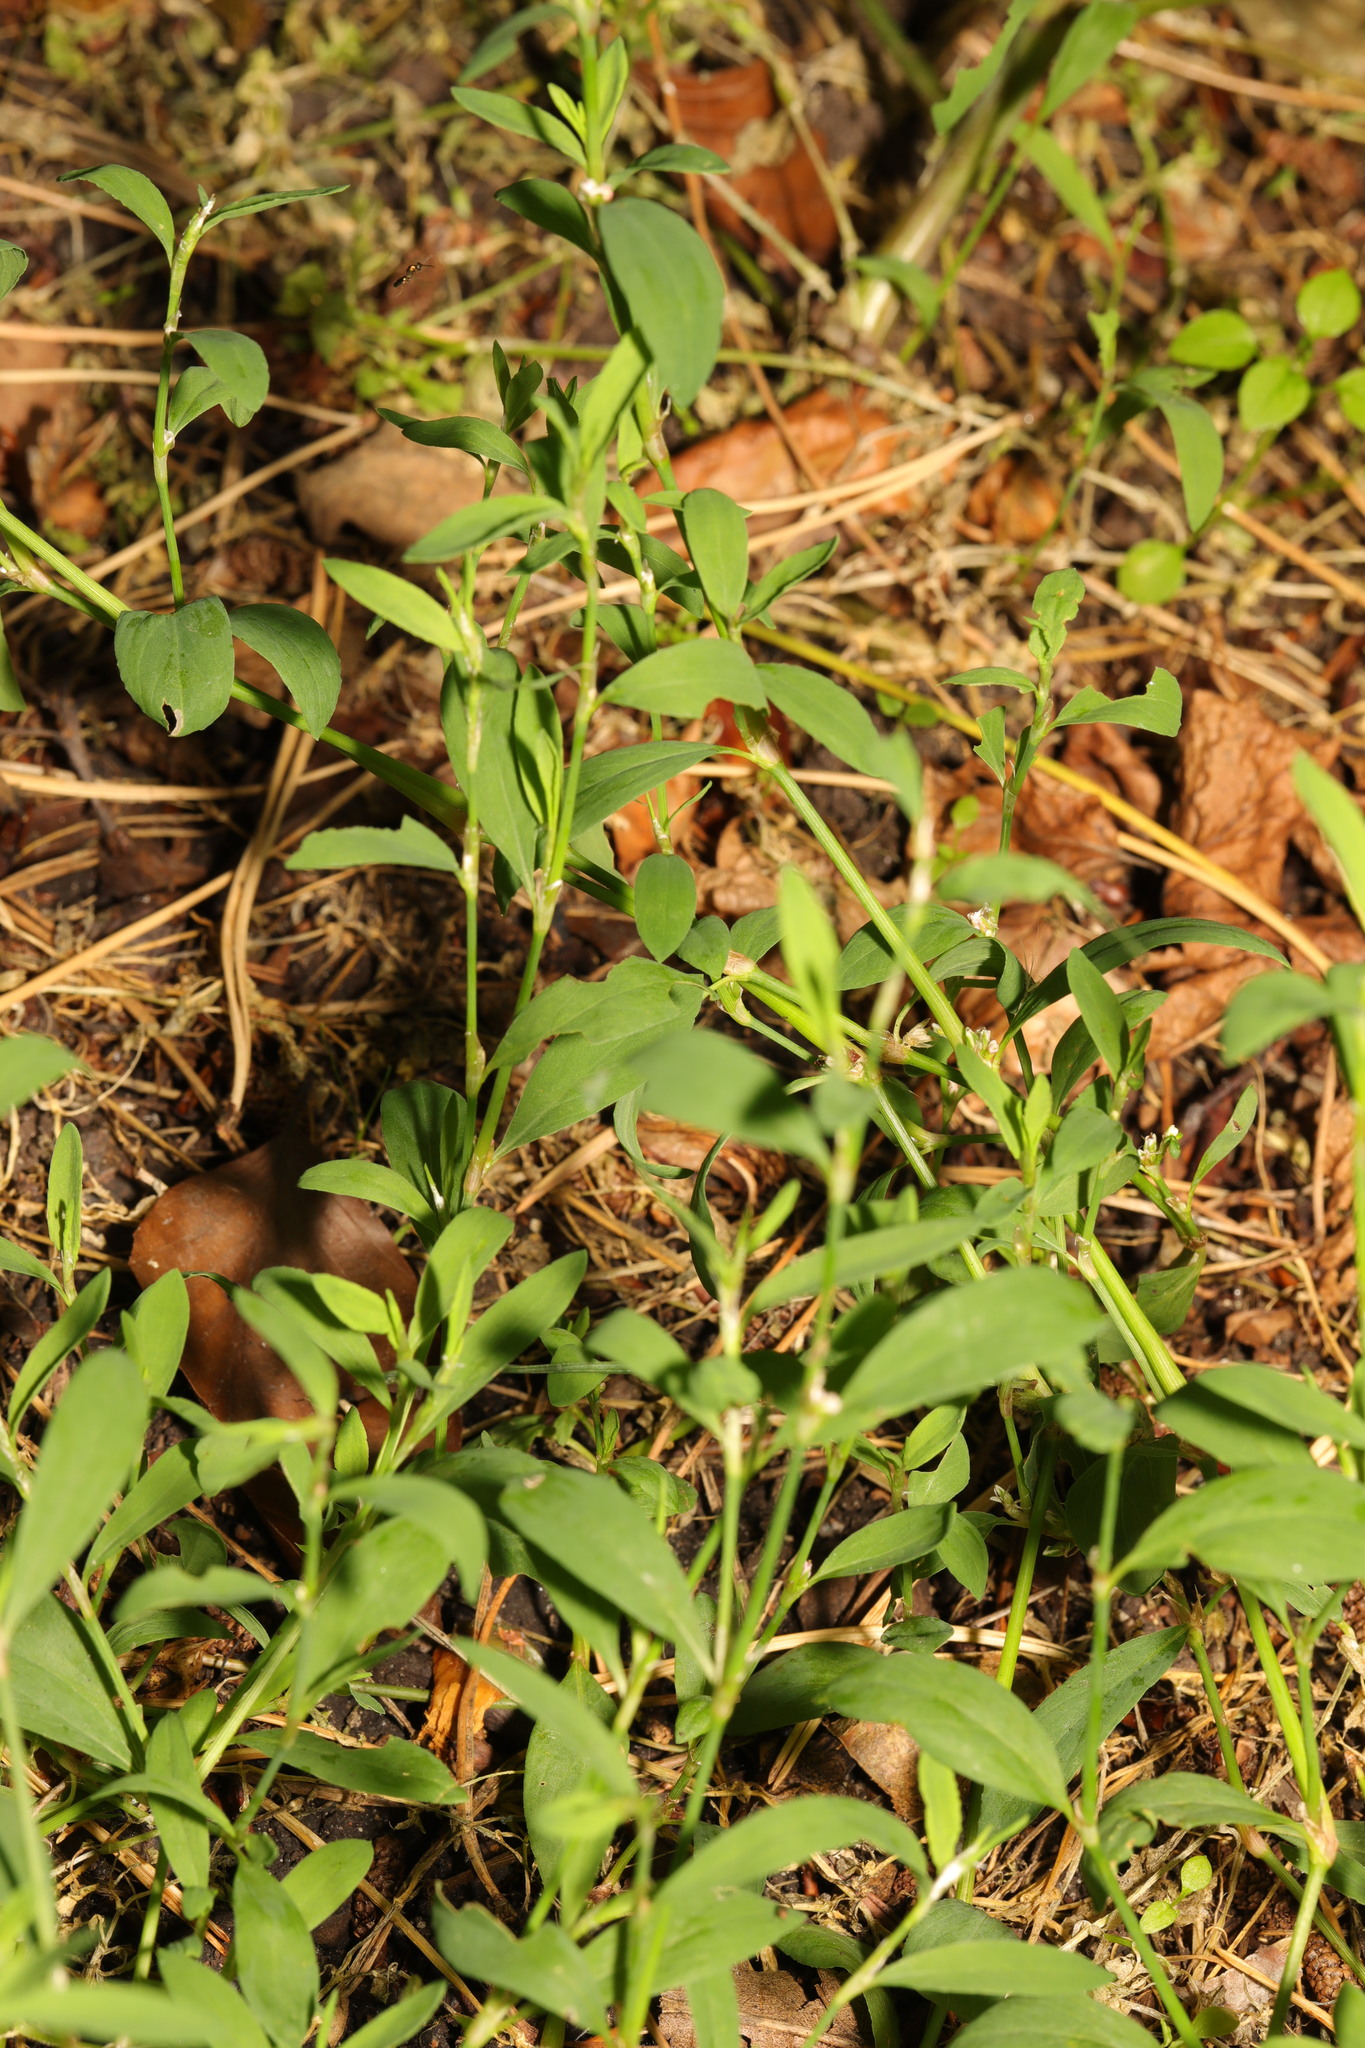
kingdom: Plantae
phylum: Tracheophyta
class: Magnoliopsida
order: Caryophyllales
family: Polygonaceae
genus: Polygonum
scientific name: Polygonum aviculare
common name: Prostrate knotweed
